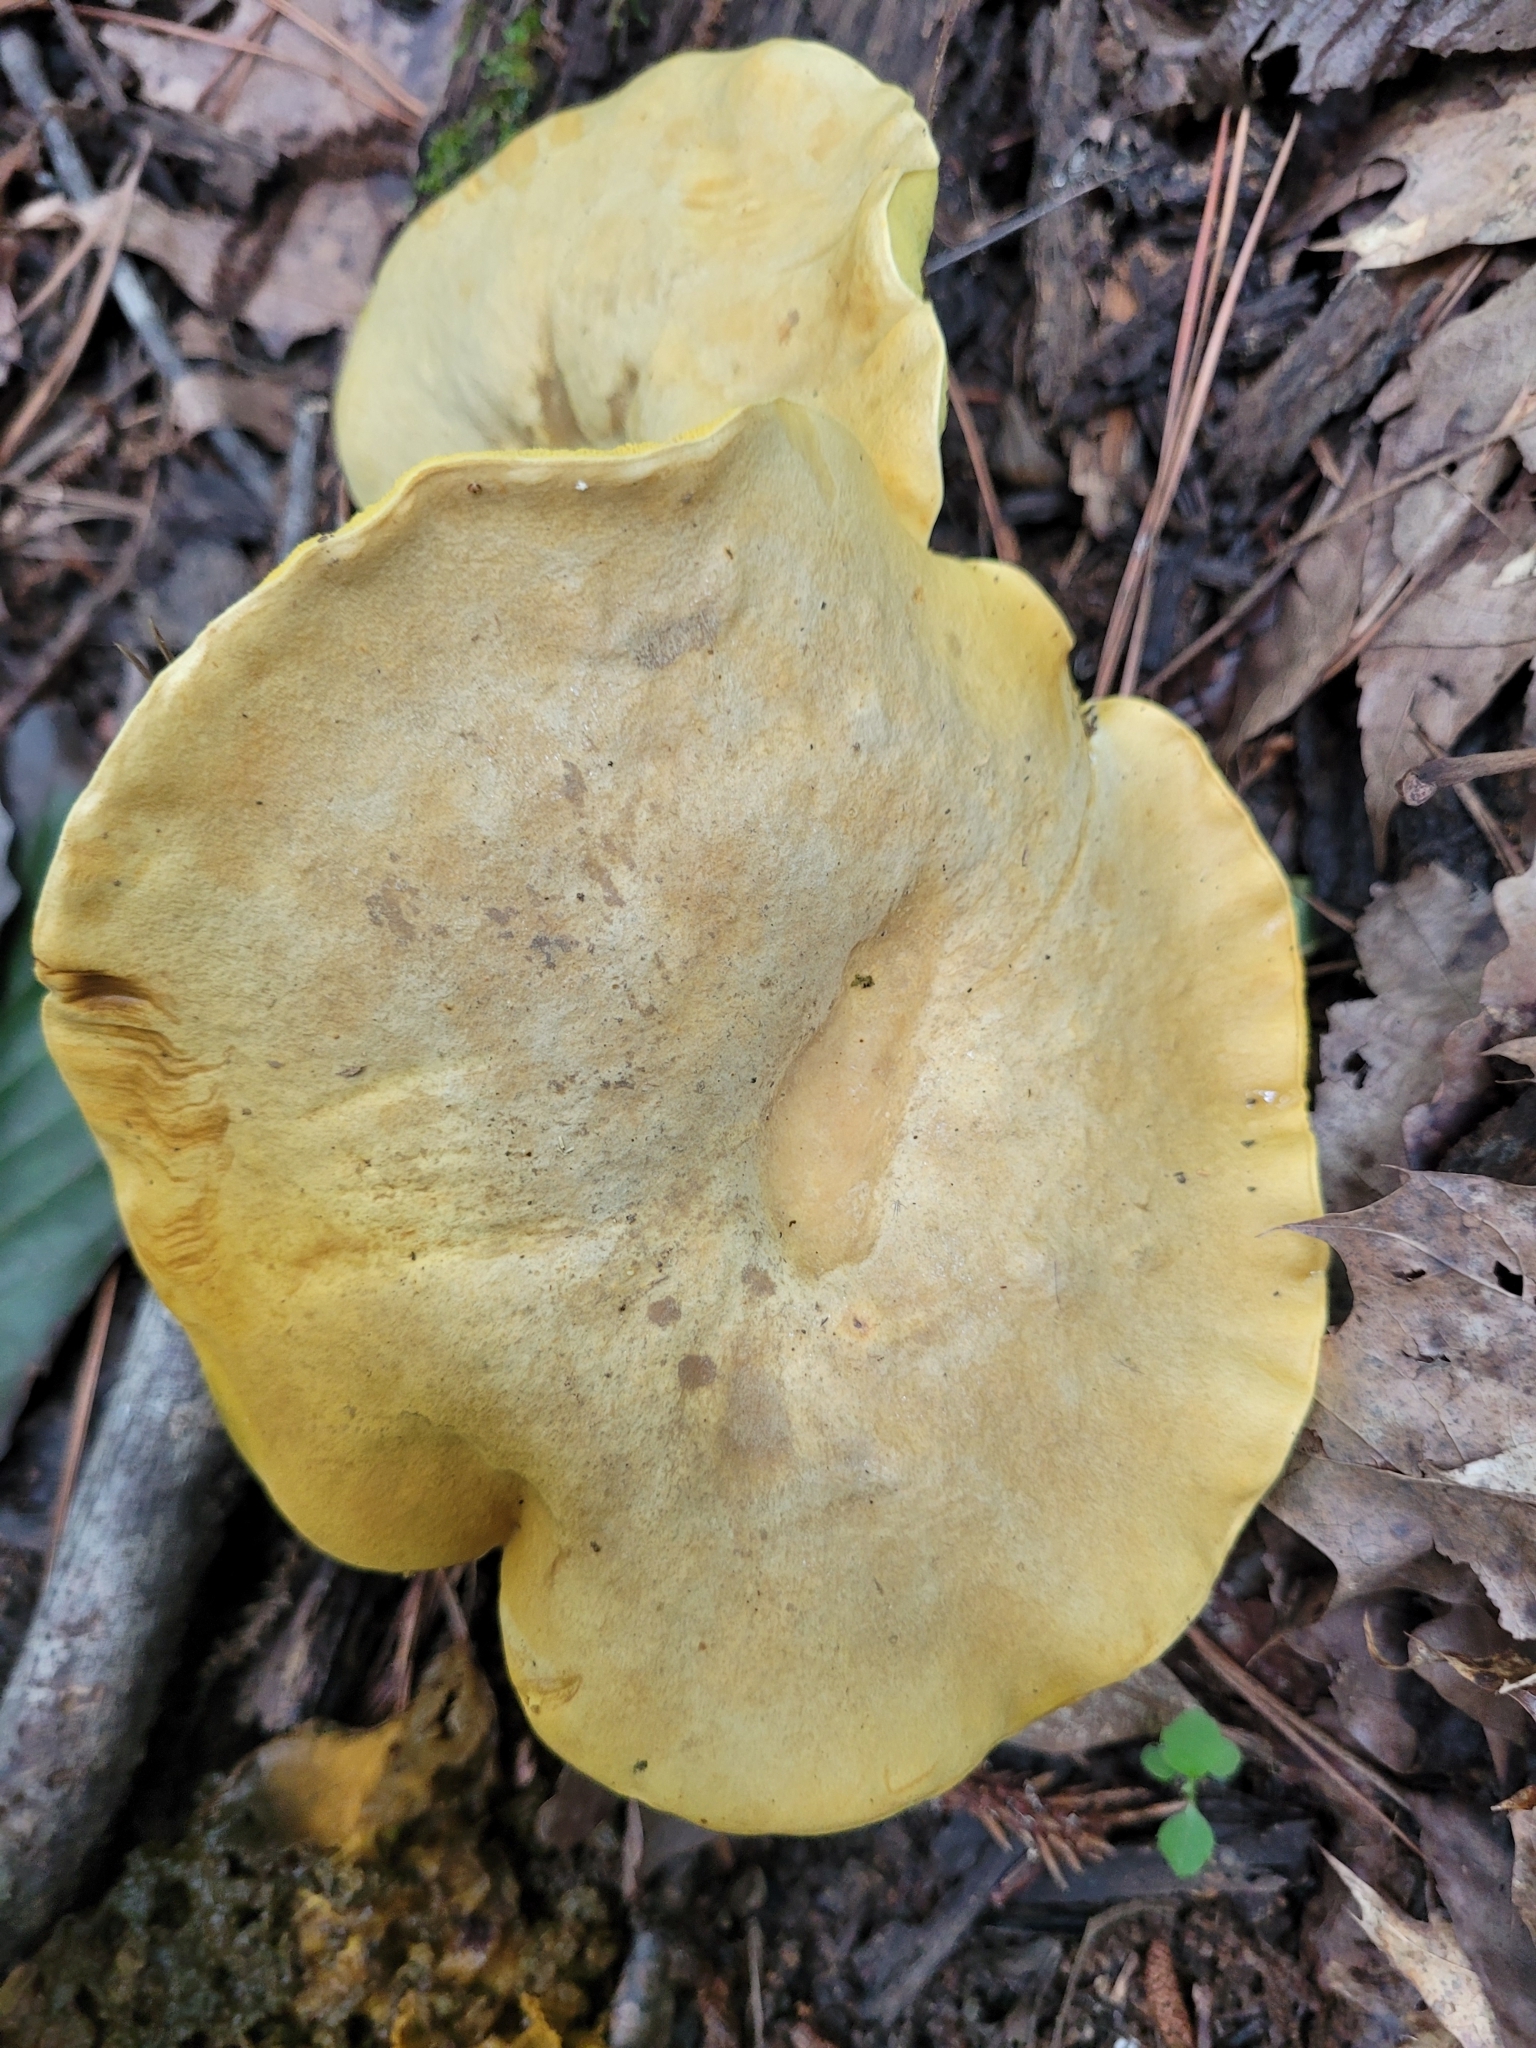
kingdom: Fungi
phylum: Basidiomycota
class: Agaricomycetes
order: Boletales
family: Boletaceae
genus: Retiboletus
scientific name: Retiboletus ornatipes
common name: Ornate-stalked bolete
